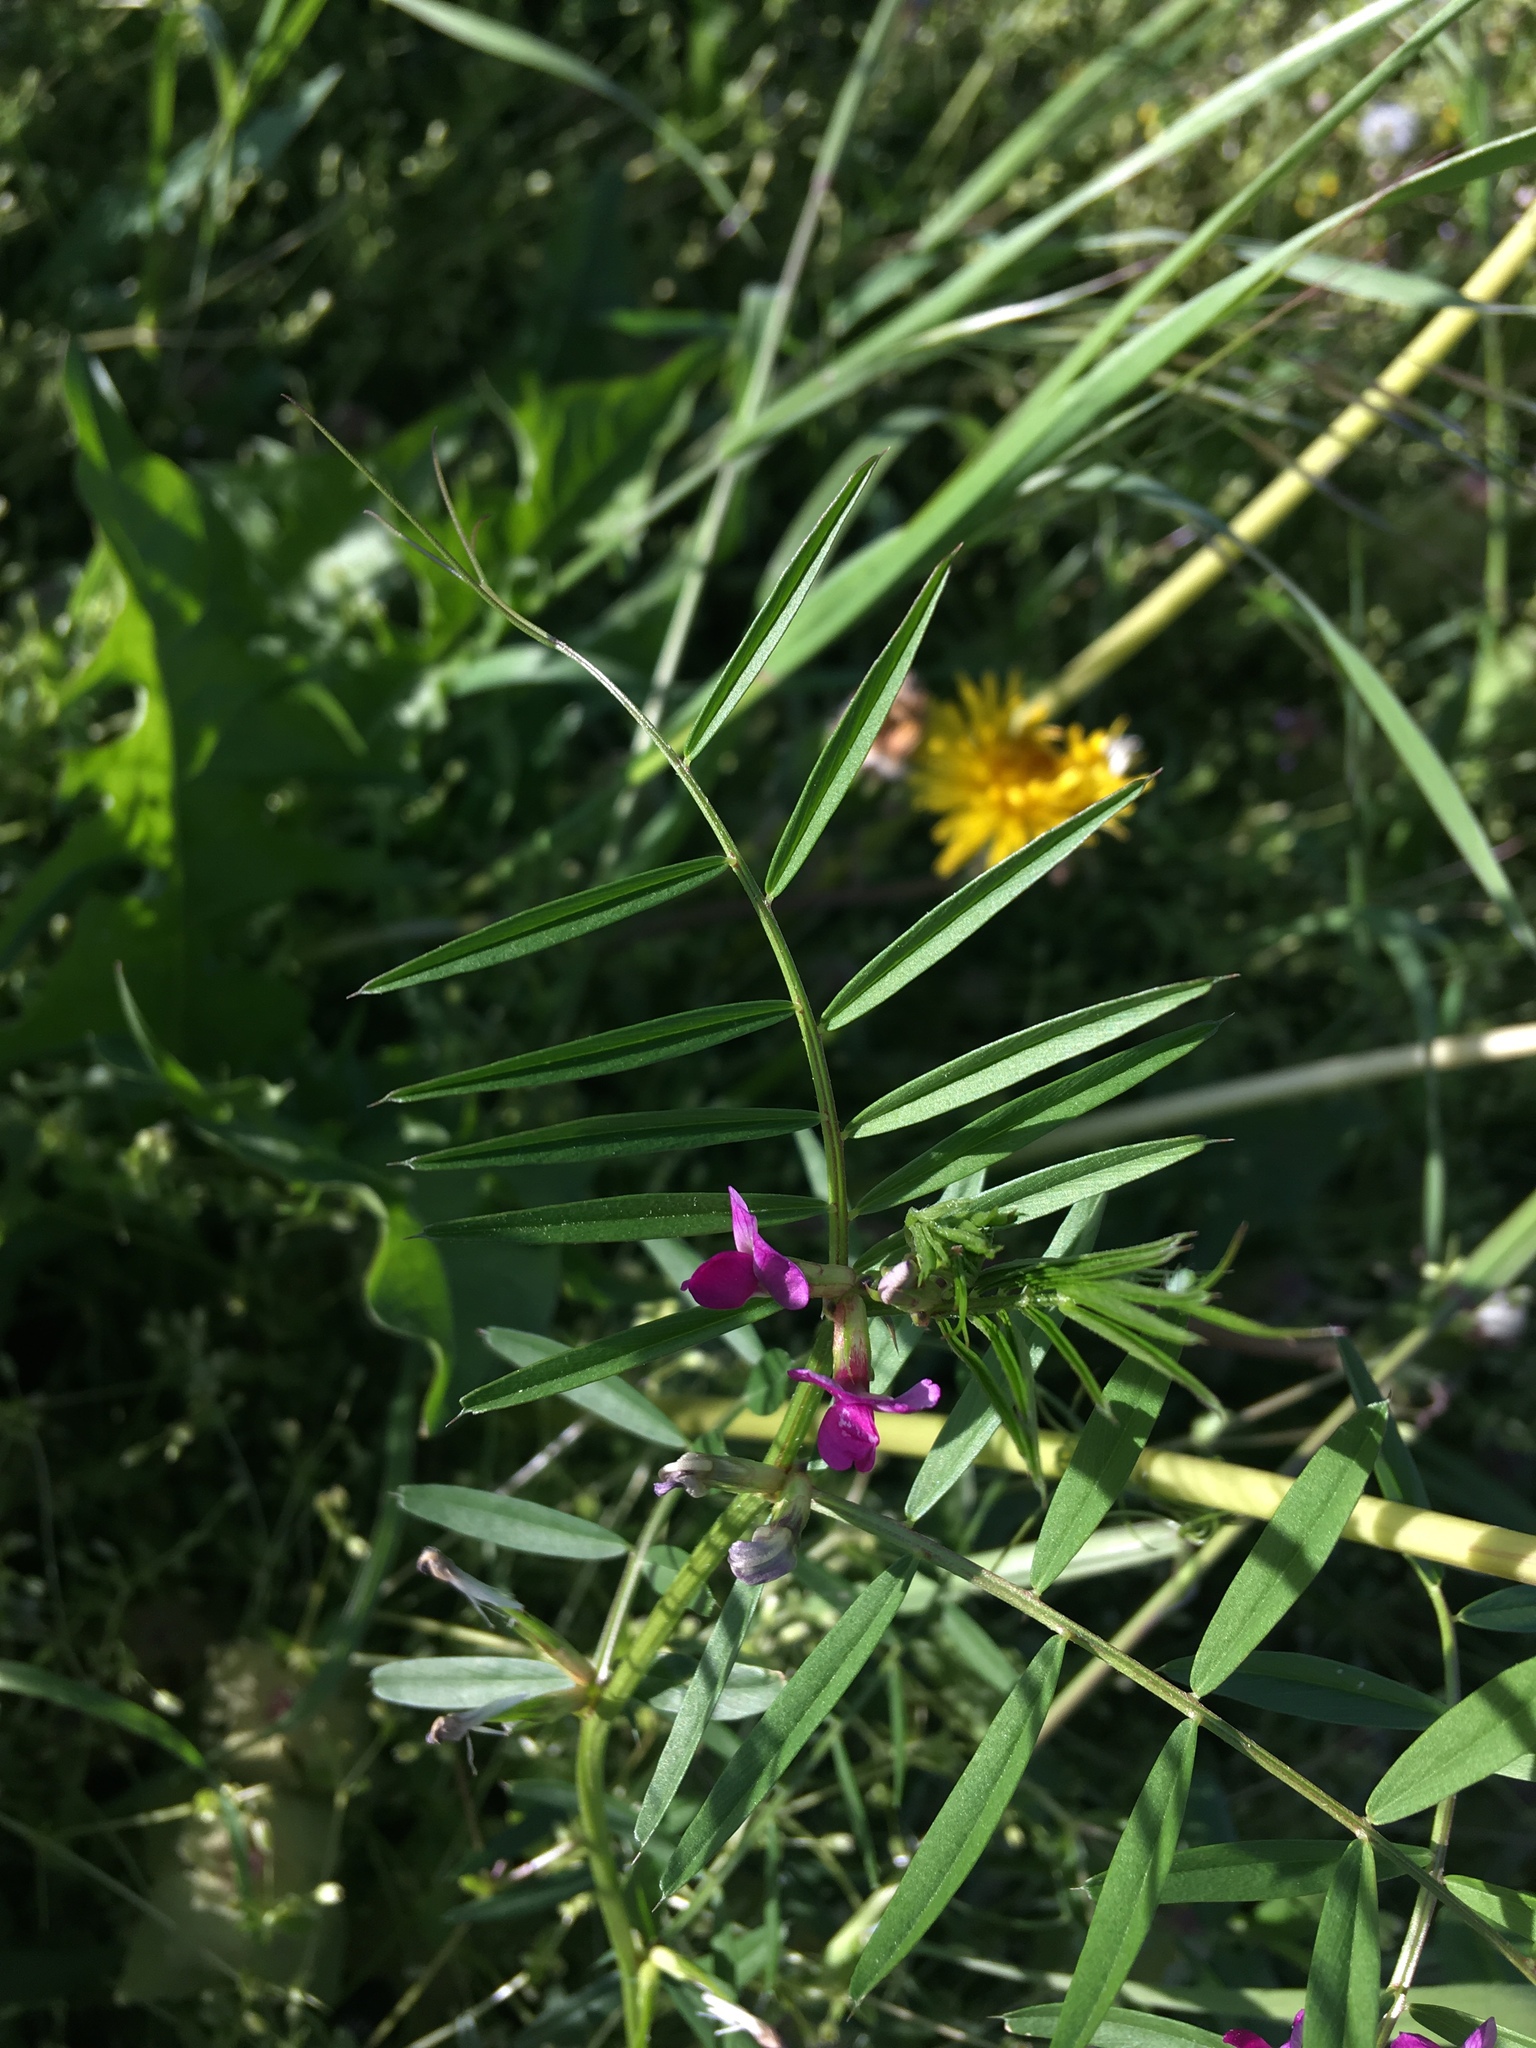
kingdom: Plantae
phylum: Tracheophyta
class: Magnoliopsida
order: Fabales
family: Fabaceae
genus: Vicia
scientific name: Vicia sativa
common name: Garden vetch
